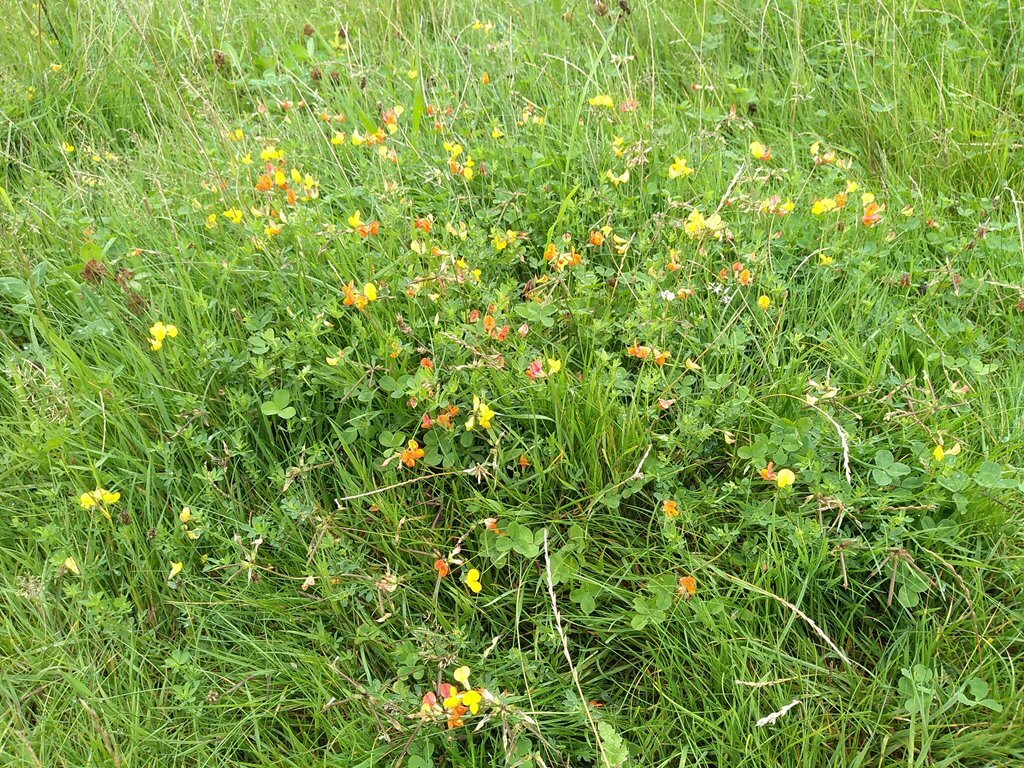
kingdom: Plantae
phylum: Tracheophyta
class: Magnoliopsida
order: Fabales
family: Fabaceae
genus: Lotus
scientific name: Lotus corniculatus
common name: Common bird's-foot-trefoil
